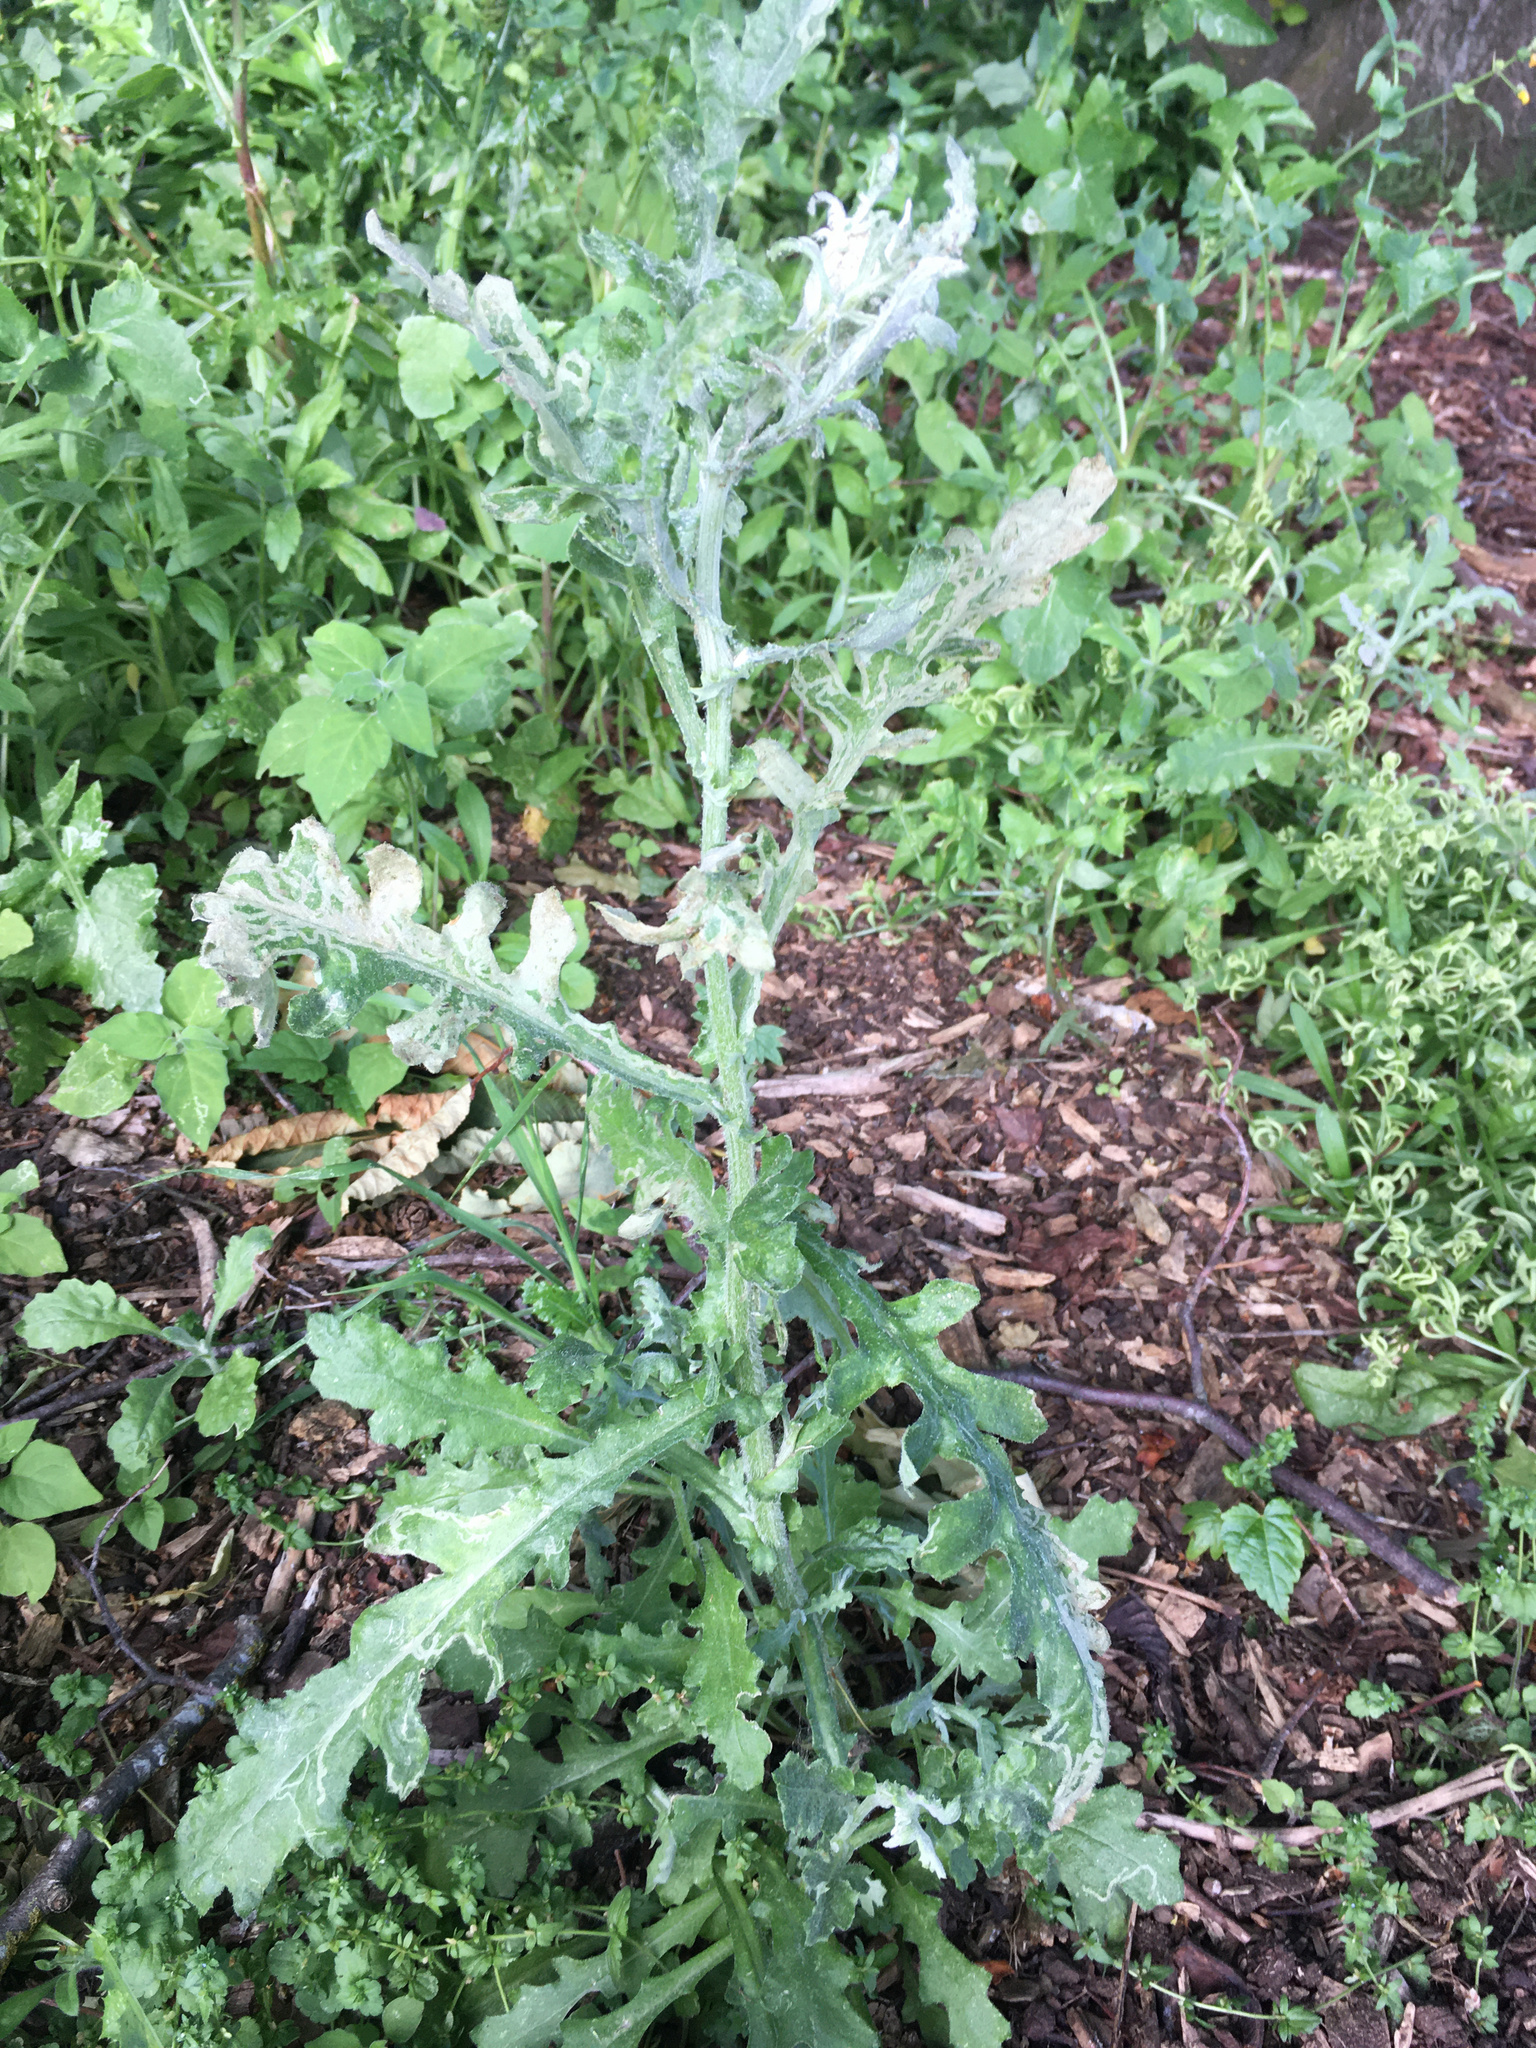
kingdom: Plantae
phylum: Tracheophyta
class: Magnoliopsida
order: Asterales
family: Asteraceae
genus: Senecio
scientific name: Senecio glomeratus
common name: Cutleaf burnweed
